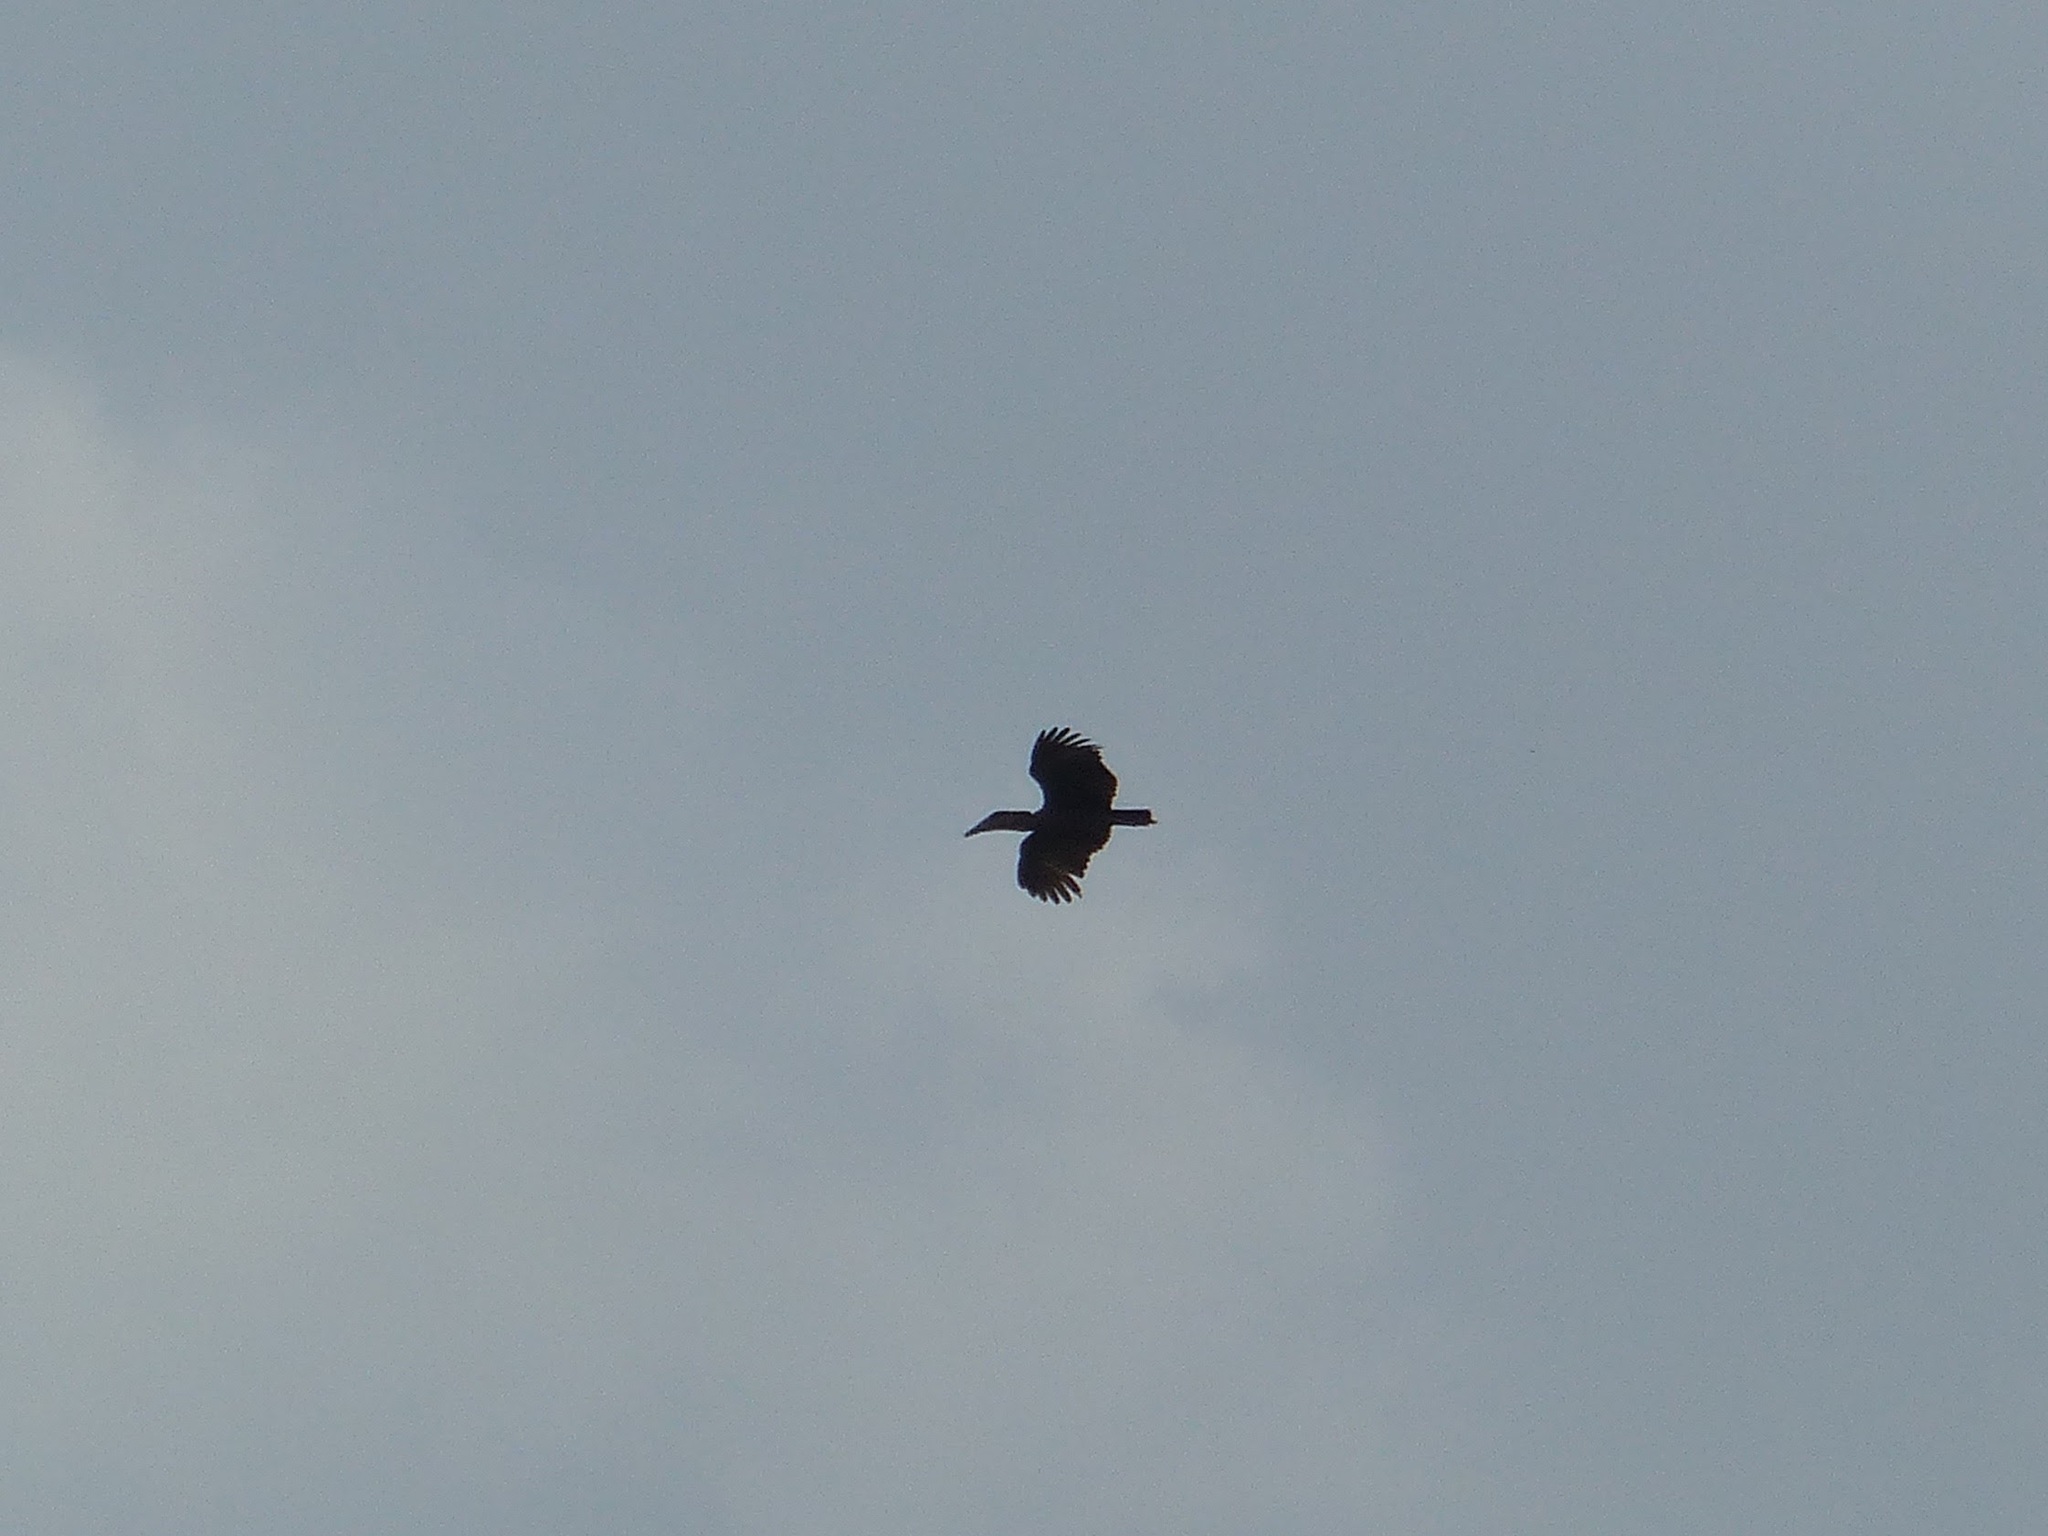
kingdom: Animalia
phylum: Chordata
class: Aves
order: Pelecaniformes
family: Scopidae
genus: Scopus
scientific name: Scopus umbretta
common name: Hamerkop
